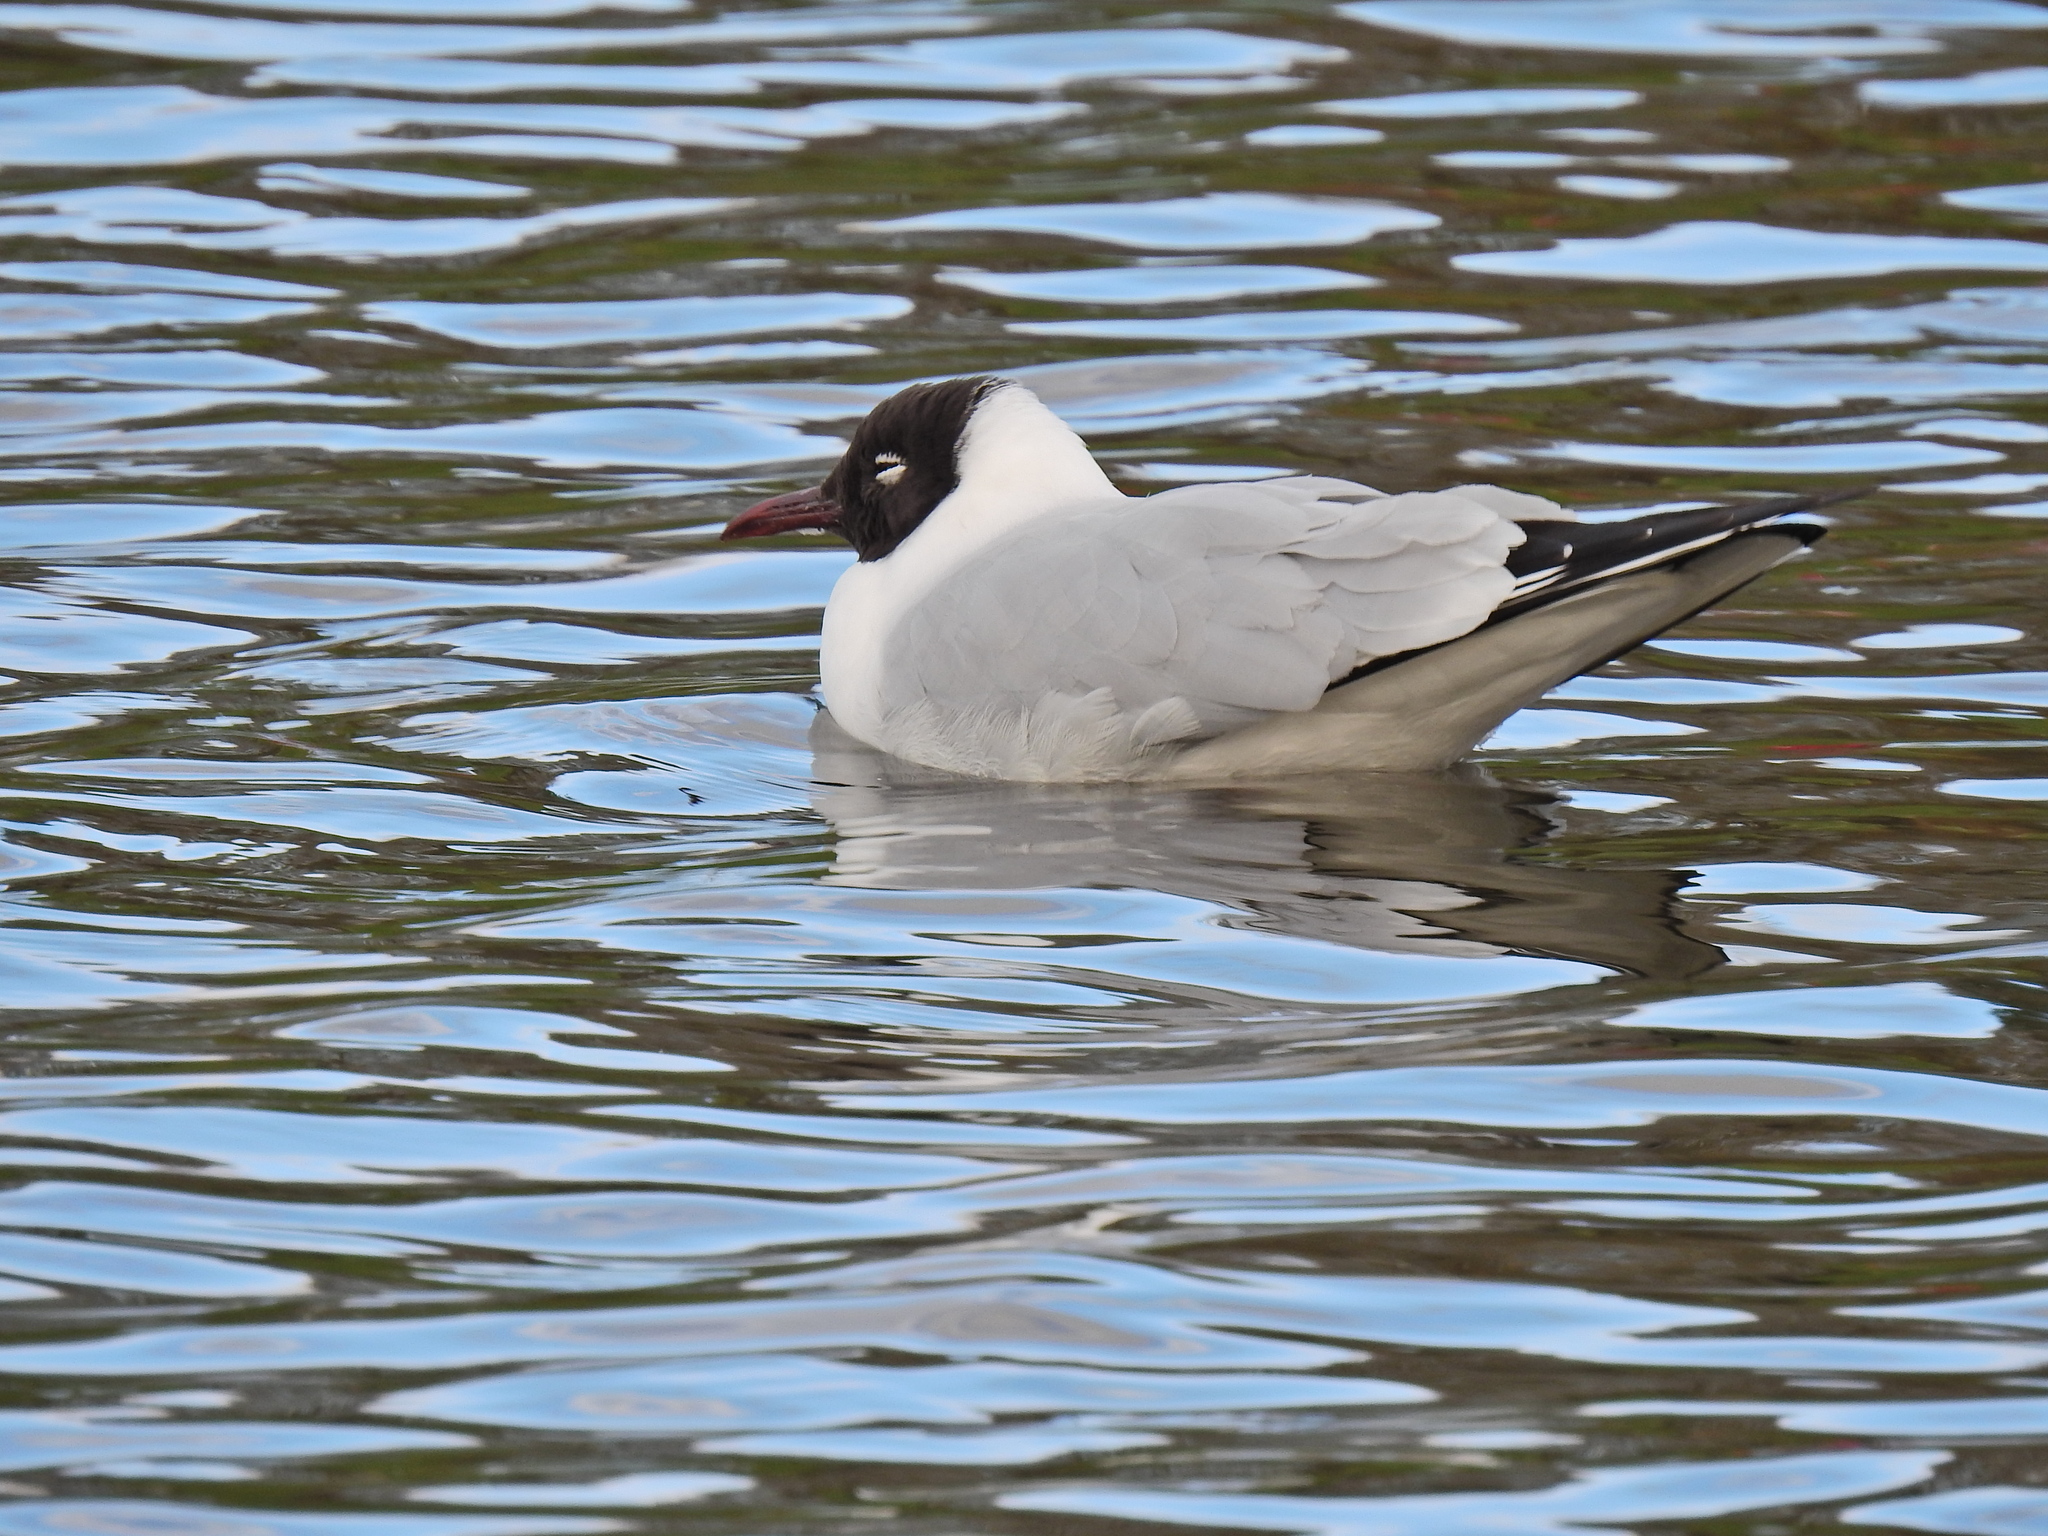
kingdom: Animalia
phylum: Chordata
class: Aves
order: Charadriiformes
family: Laridae
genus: Chroicocephalus
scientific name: Chroicocephalus ridibundus
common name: Black-headed gull
